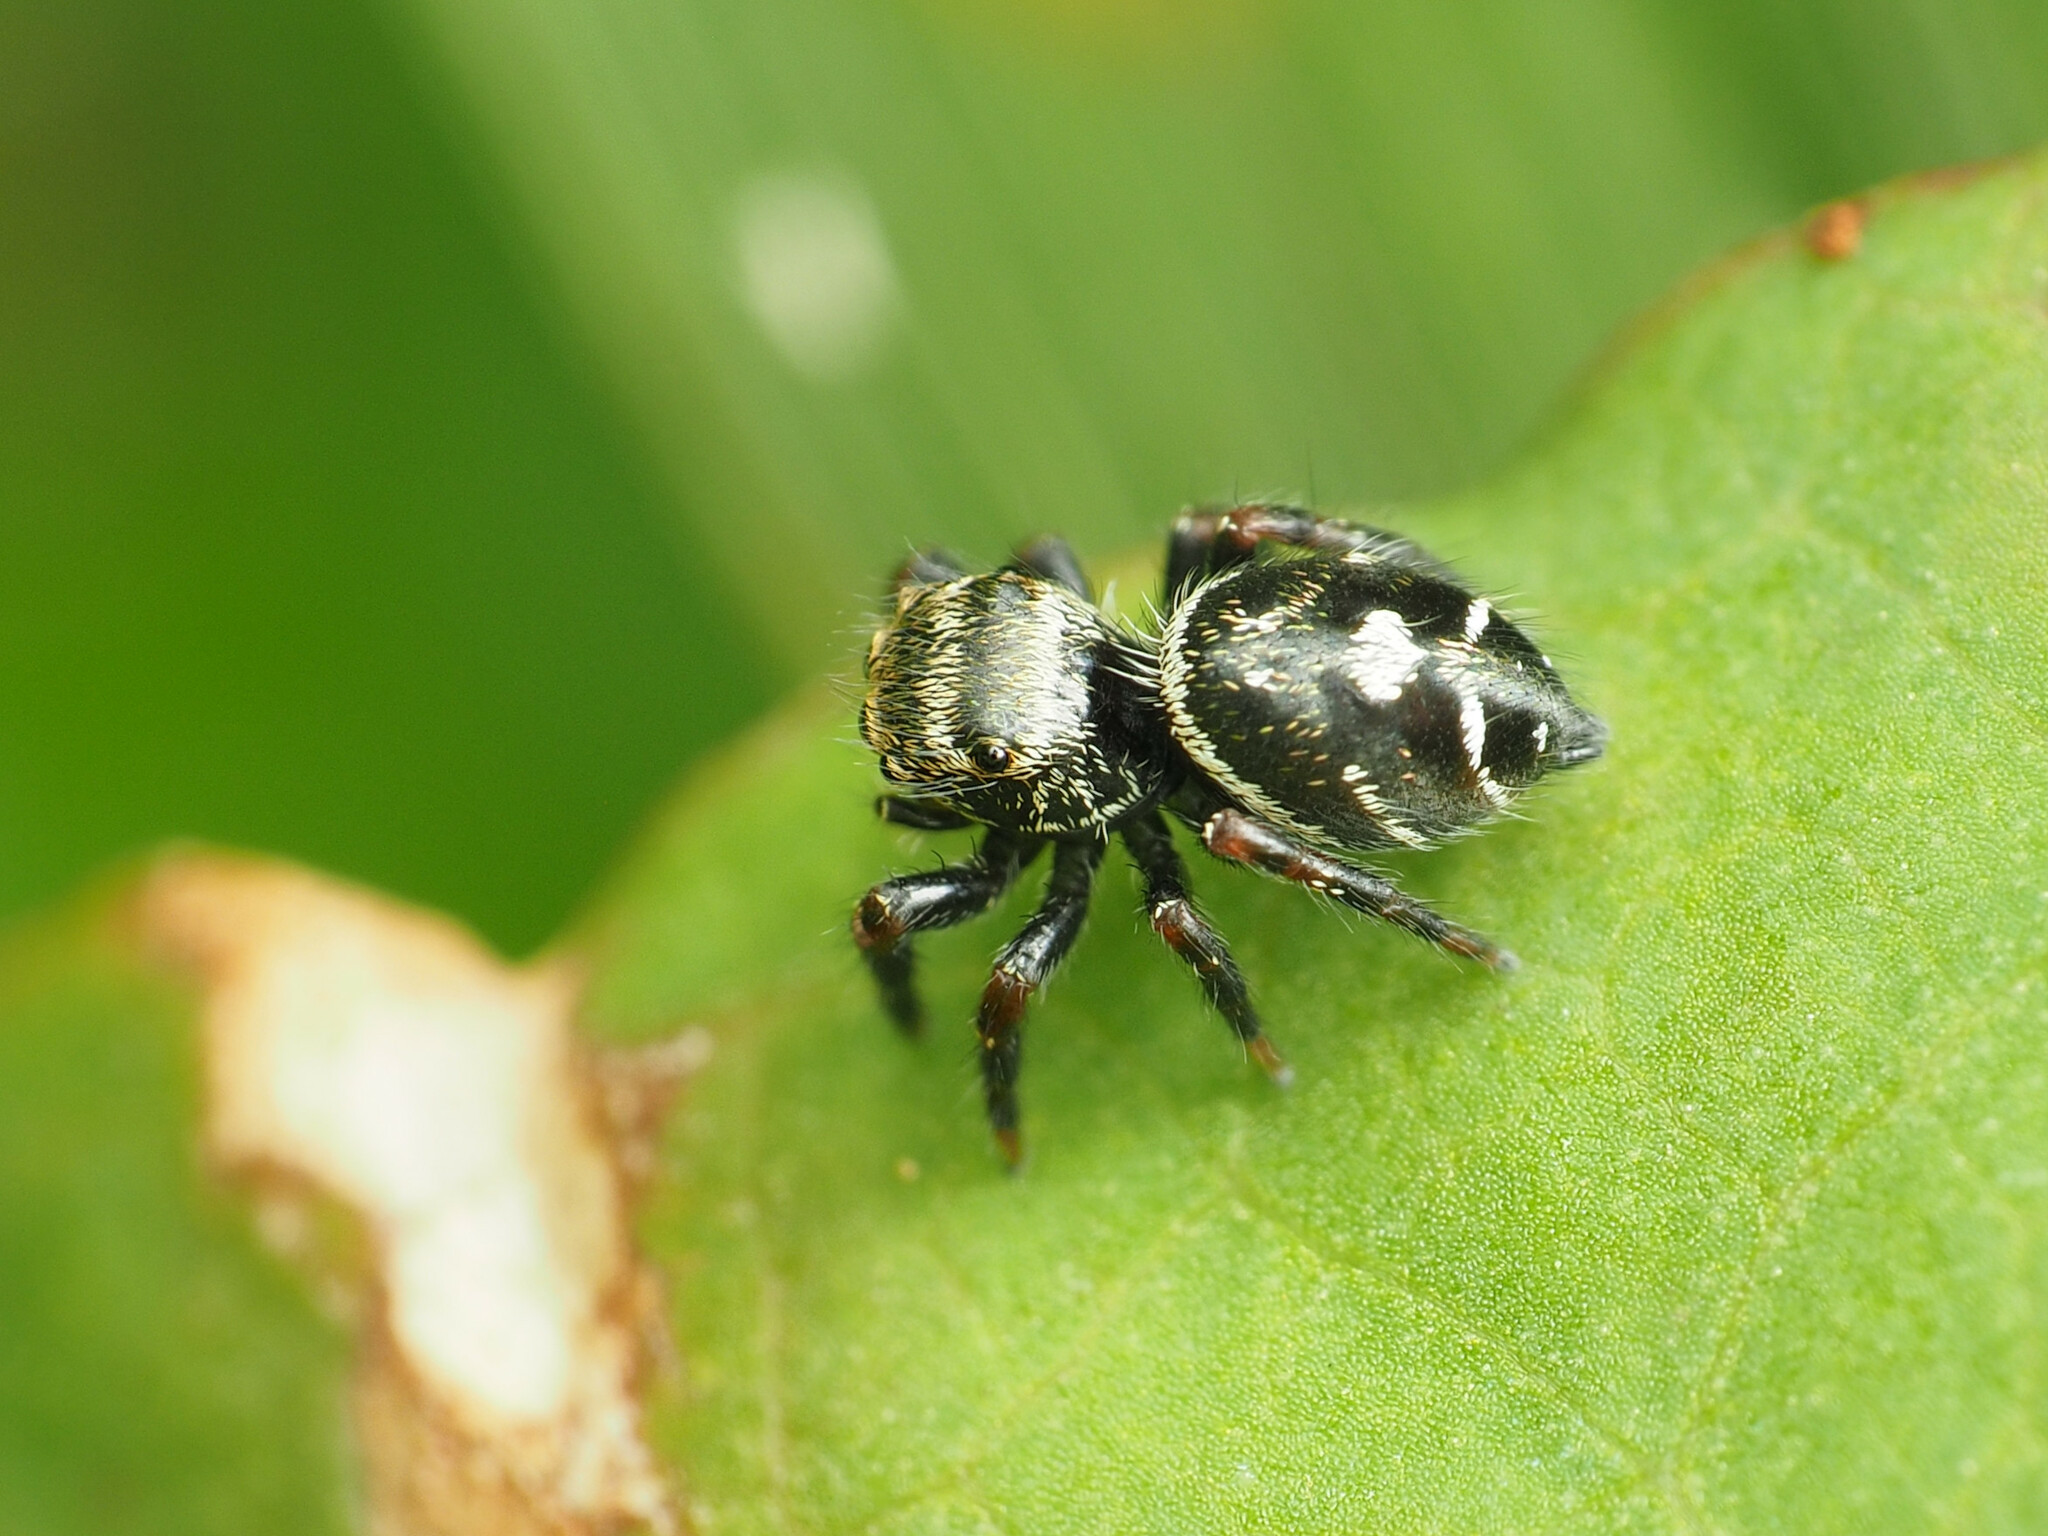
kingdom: Animalia
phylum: Arthropoda
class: Arachnida
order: Araneae
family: Salticidae
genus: Phidippus
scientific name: Phidippus audax
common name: Bold jumper
